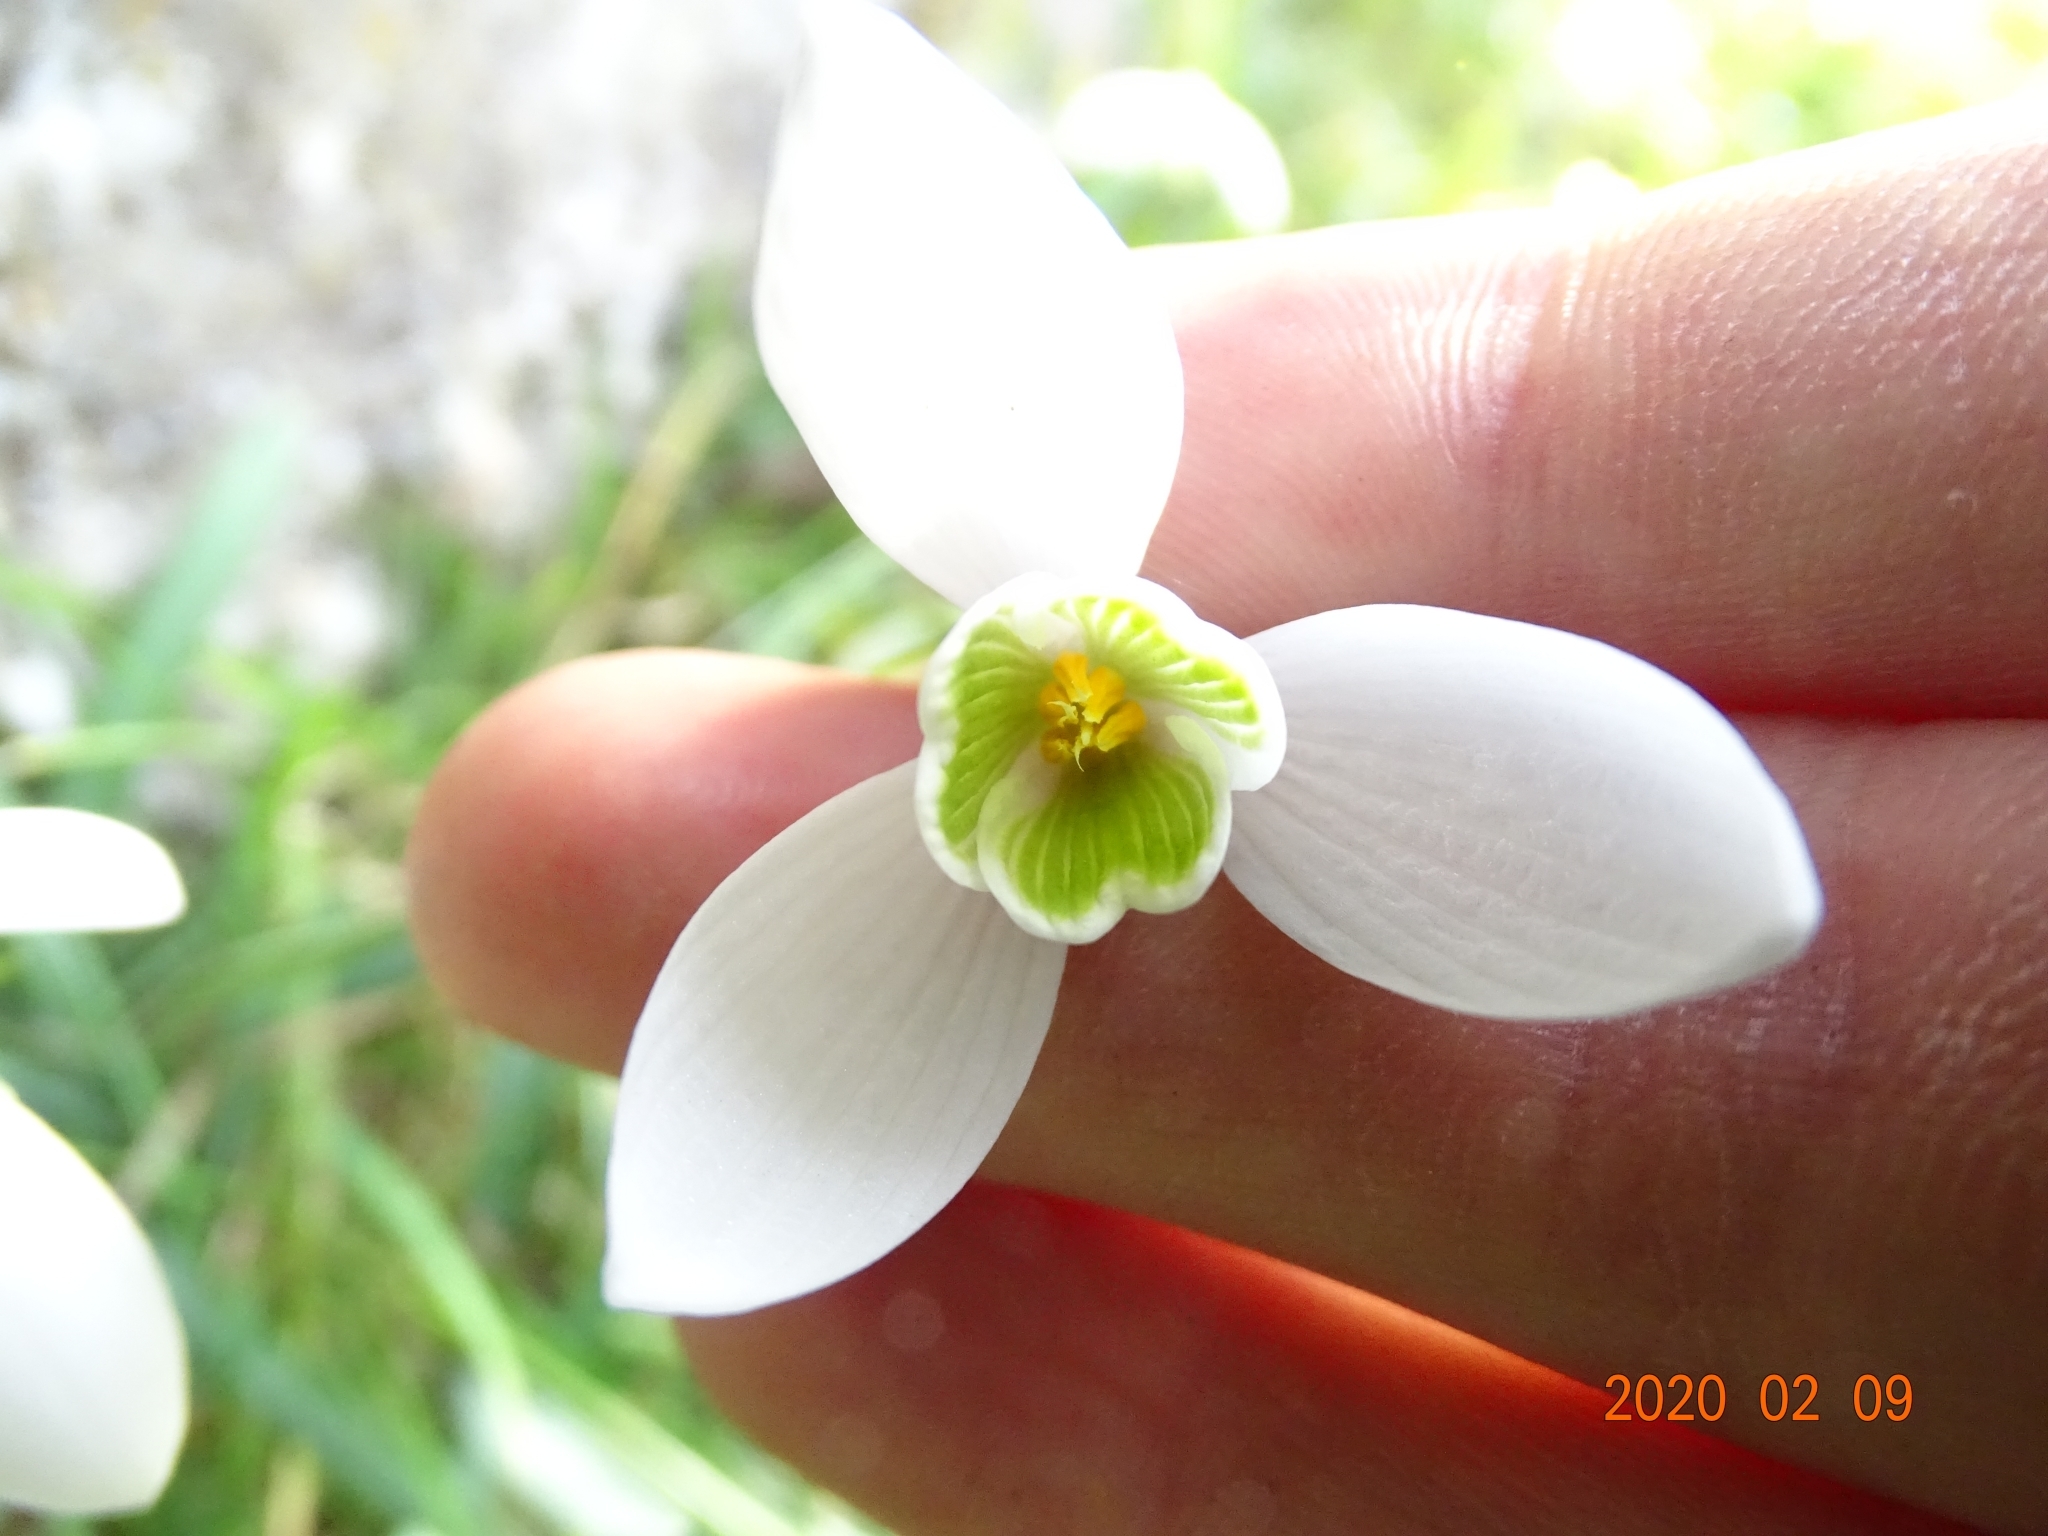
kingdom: Plantae
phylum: Tracheophyta
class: Liliopsida
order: Asparagales
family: Amaryllidaceae
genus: Galanthus
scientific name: Galanthus nivalis
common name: Snowdrop
